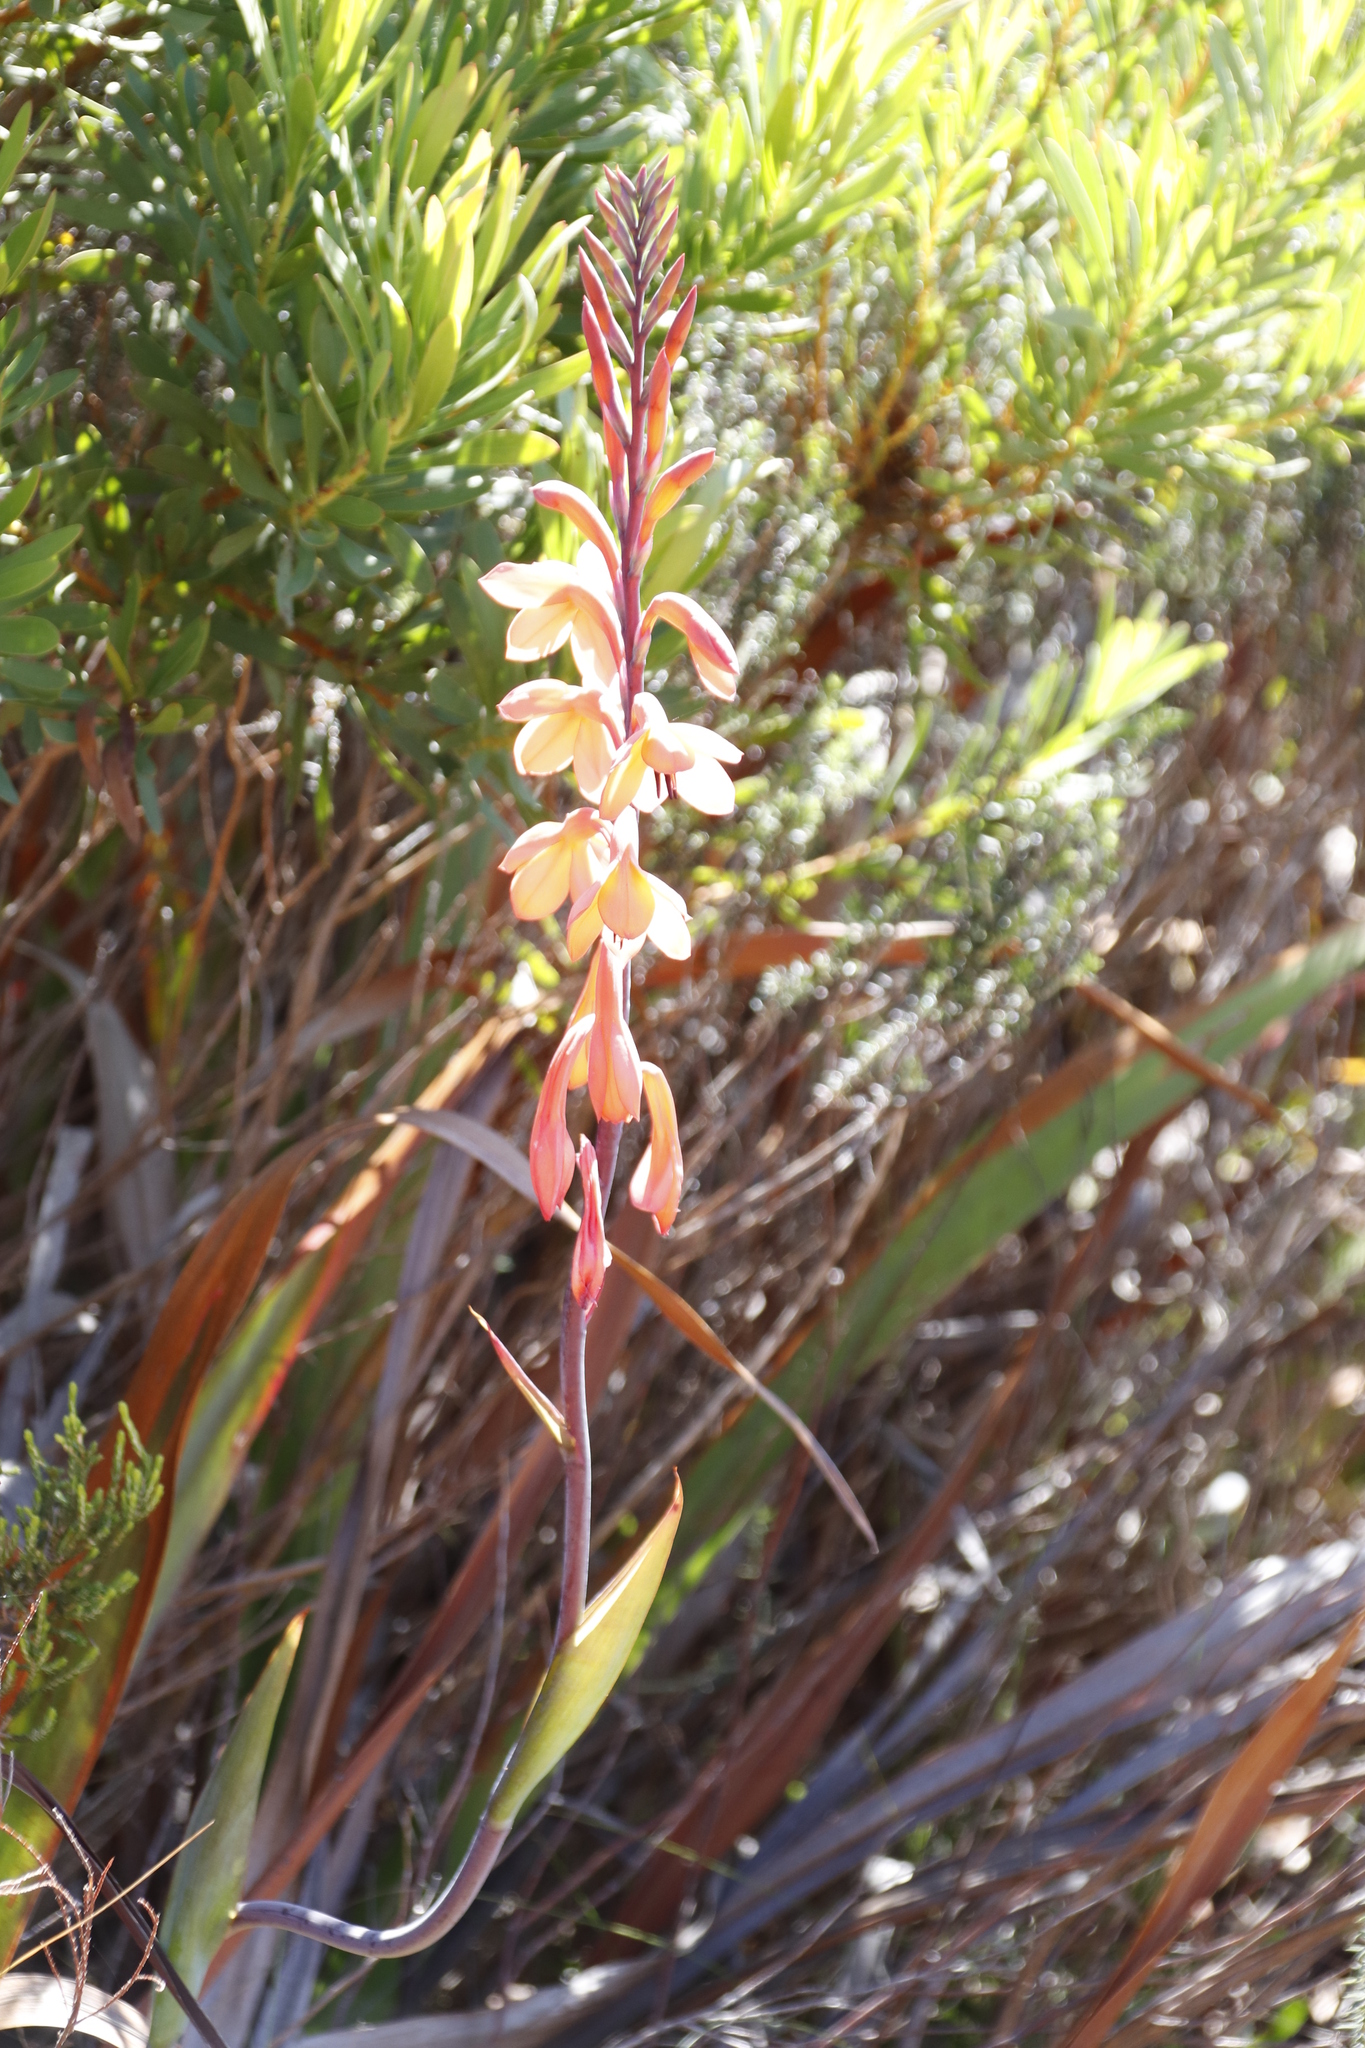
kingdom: Plantae
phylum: Tracheophyta
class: Liliopsida
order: Asparagales
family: Iridaceae
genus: Watsonia
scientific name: Watsonia tabularis
